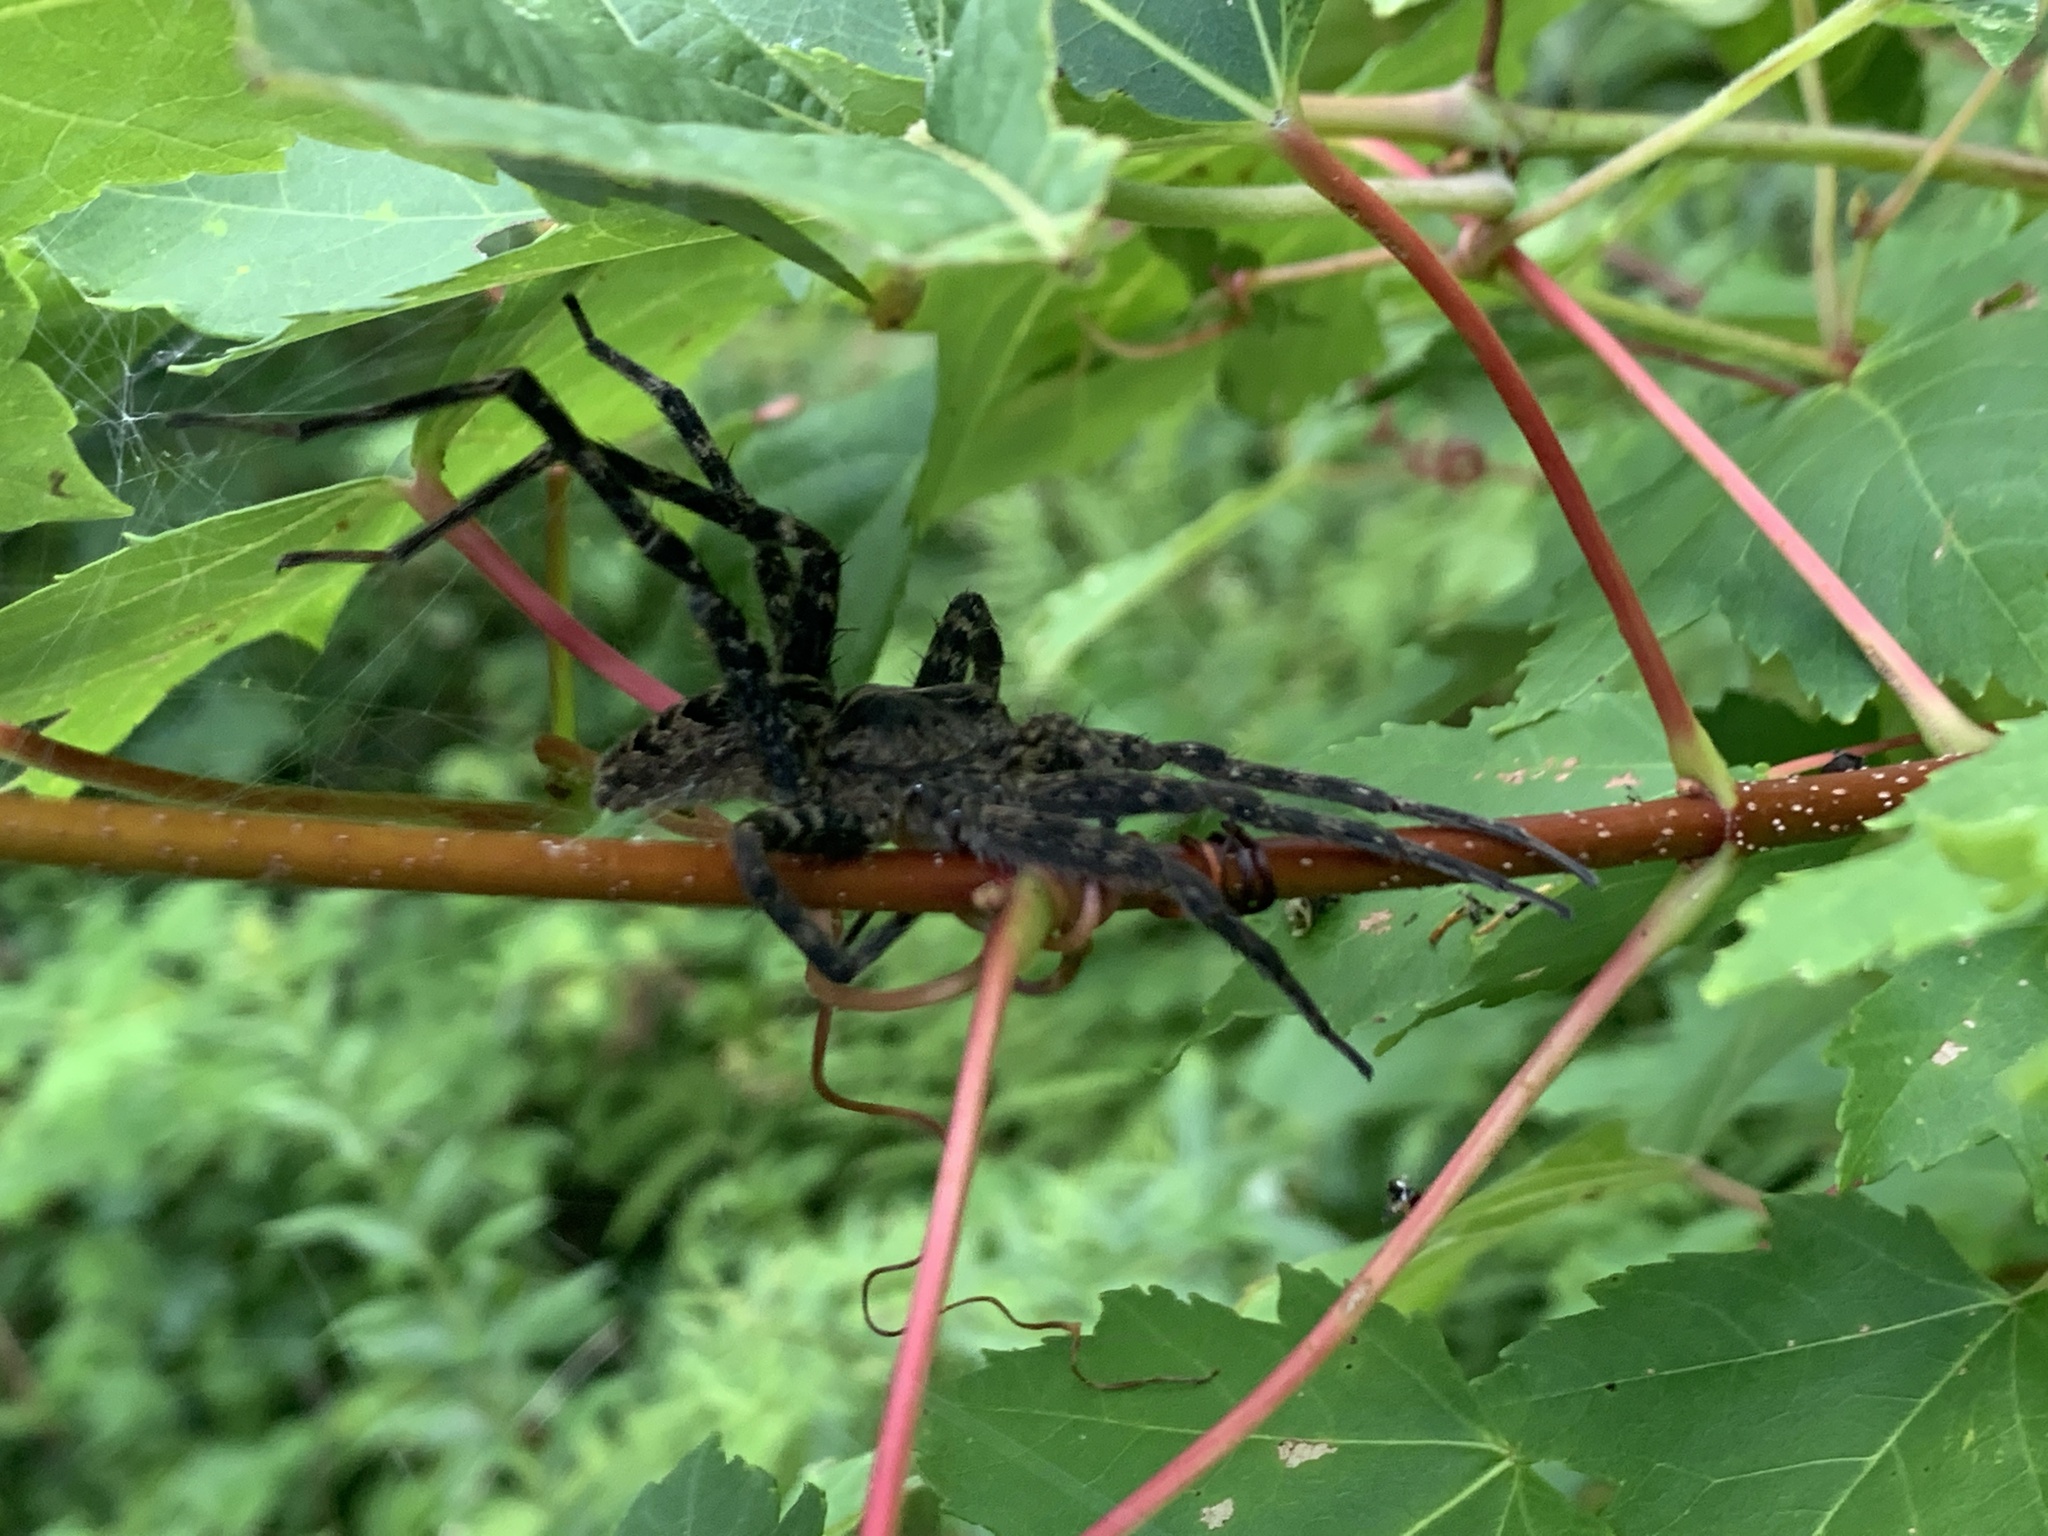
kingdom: Animalia
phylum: Arthropoda
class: Arachnida
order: Araneae
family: Pisauridae
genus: Dolomedes
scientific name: Dolomedes scriptus
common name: Striped fishing spider
